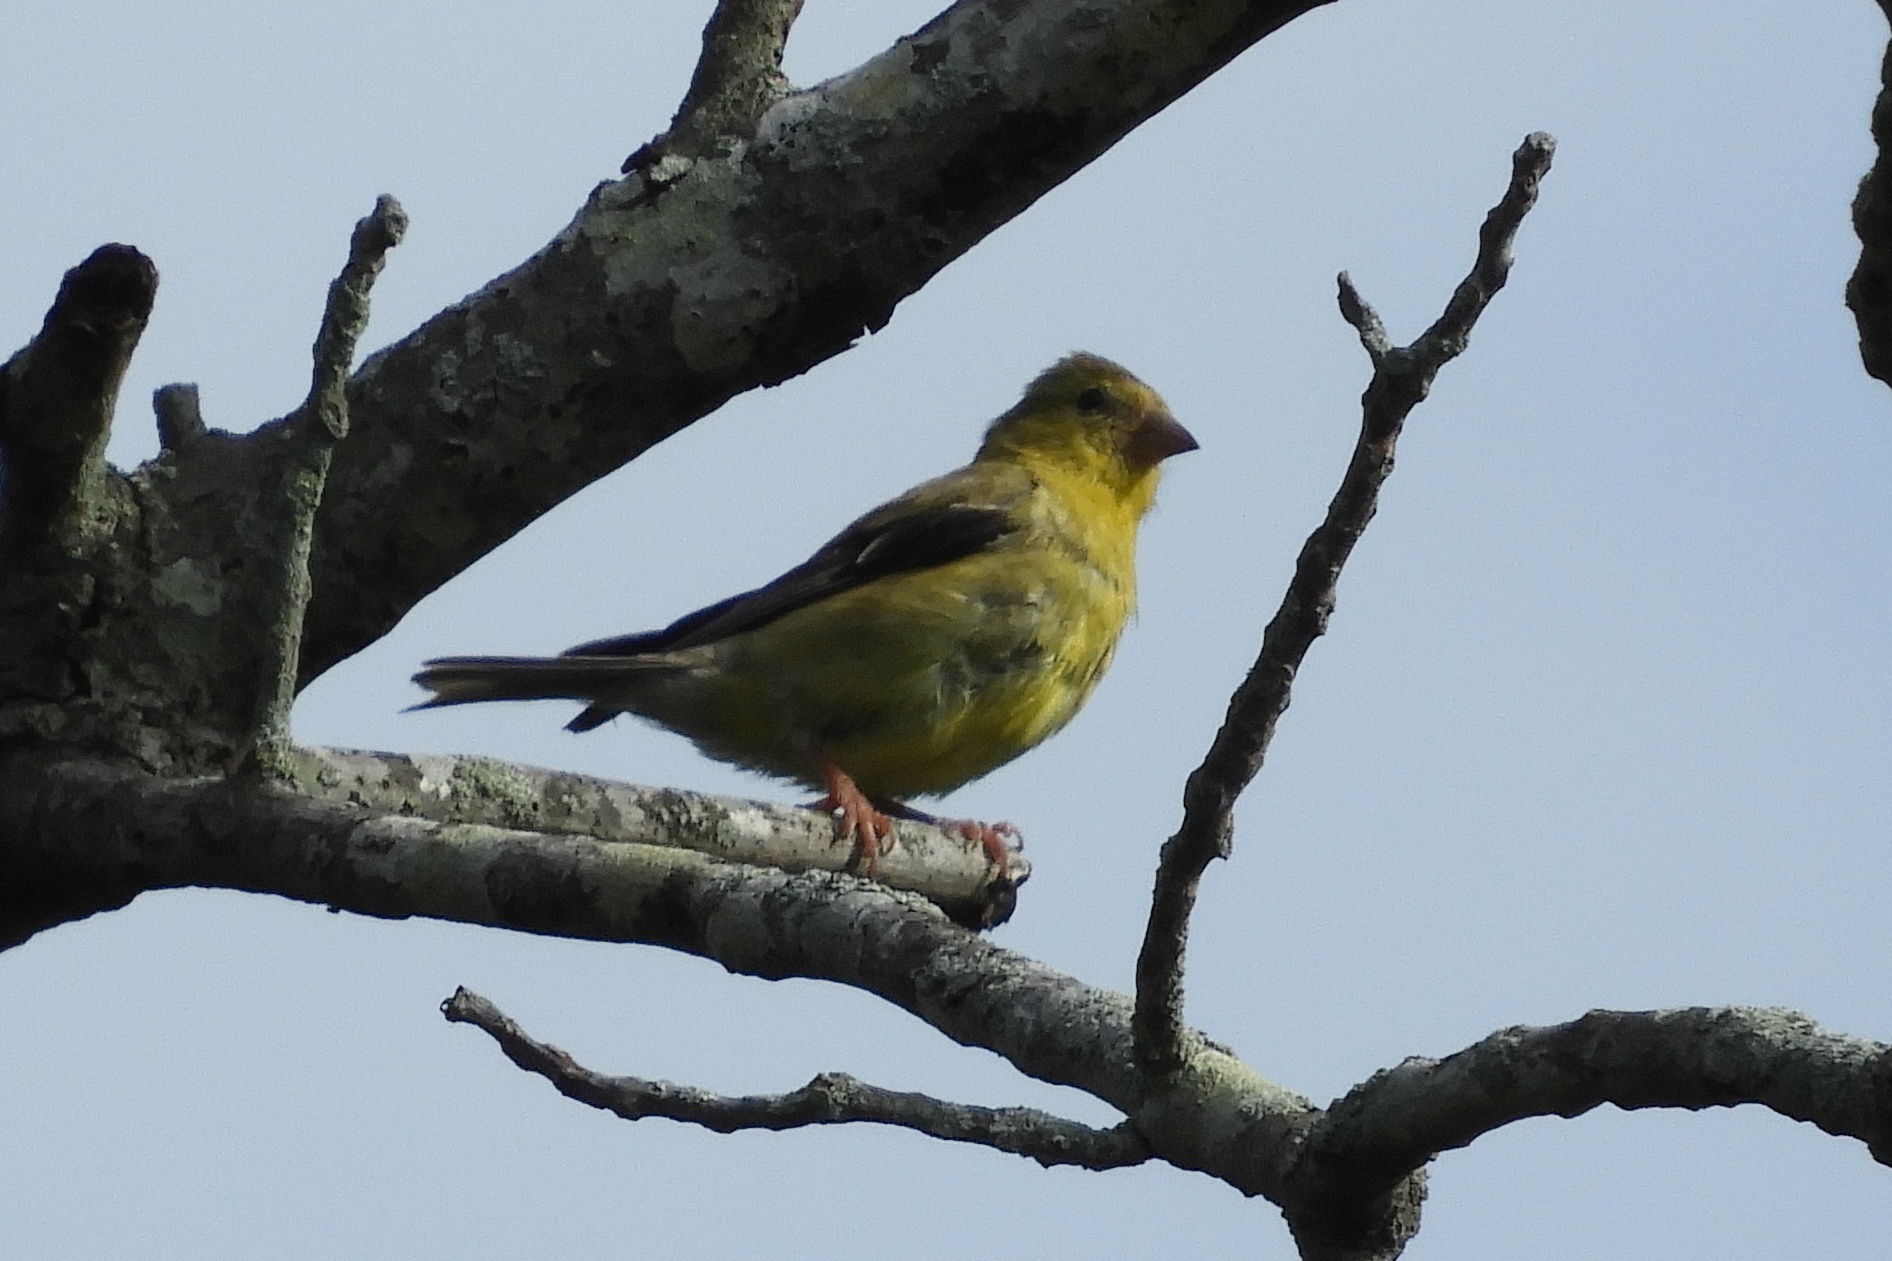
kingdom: Animalia
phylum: Chordata
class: Aves
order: Passeriformes
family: Fringillidae
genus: Spinus
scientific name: Spinus tristis
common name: American goldfinch
